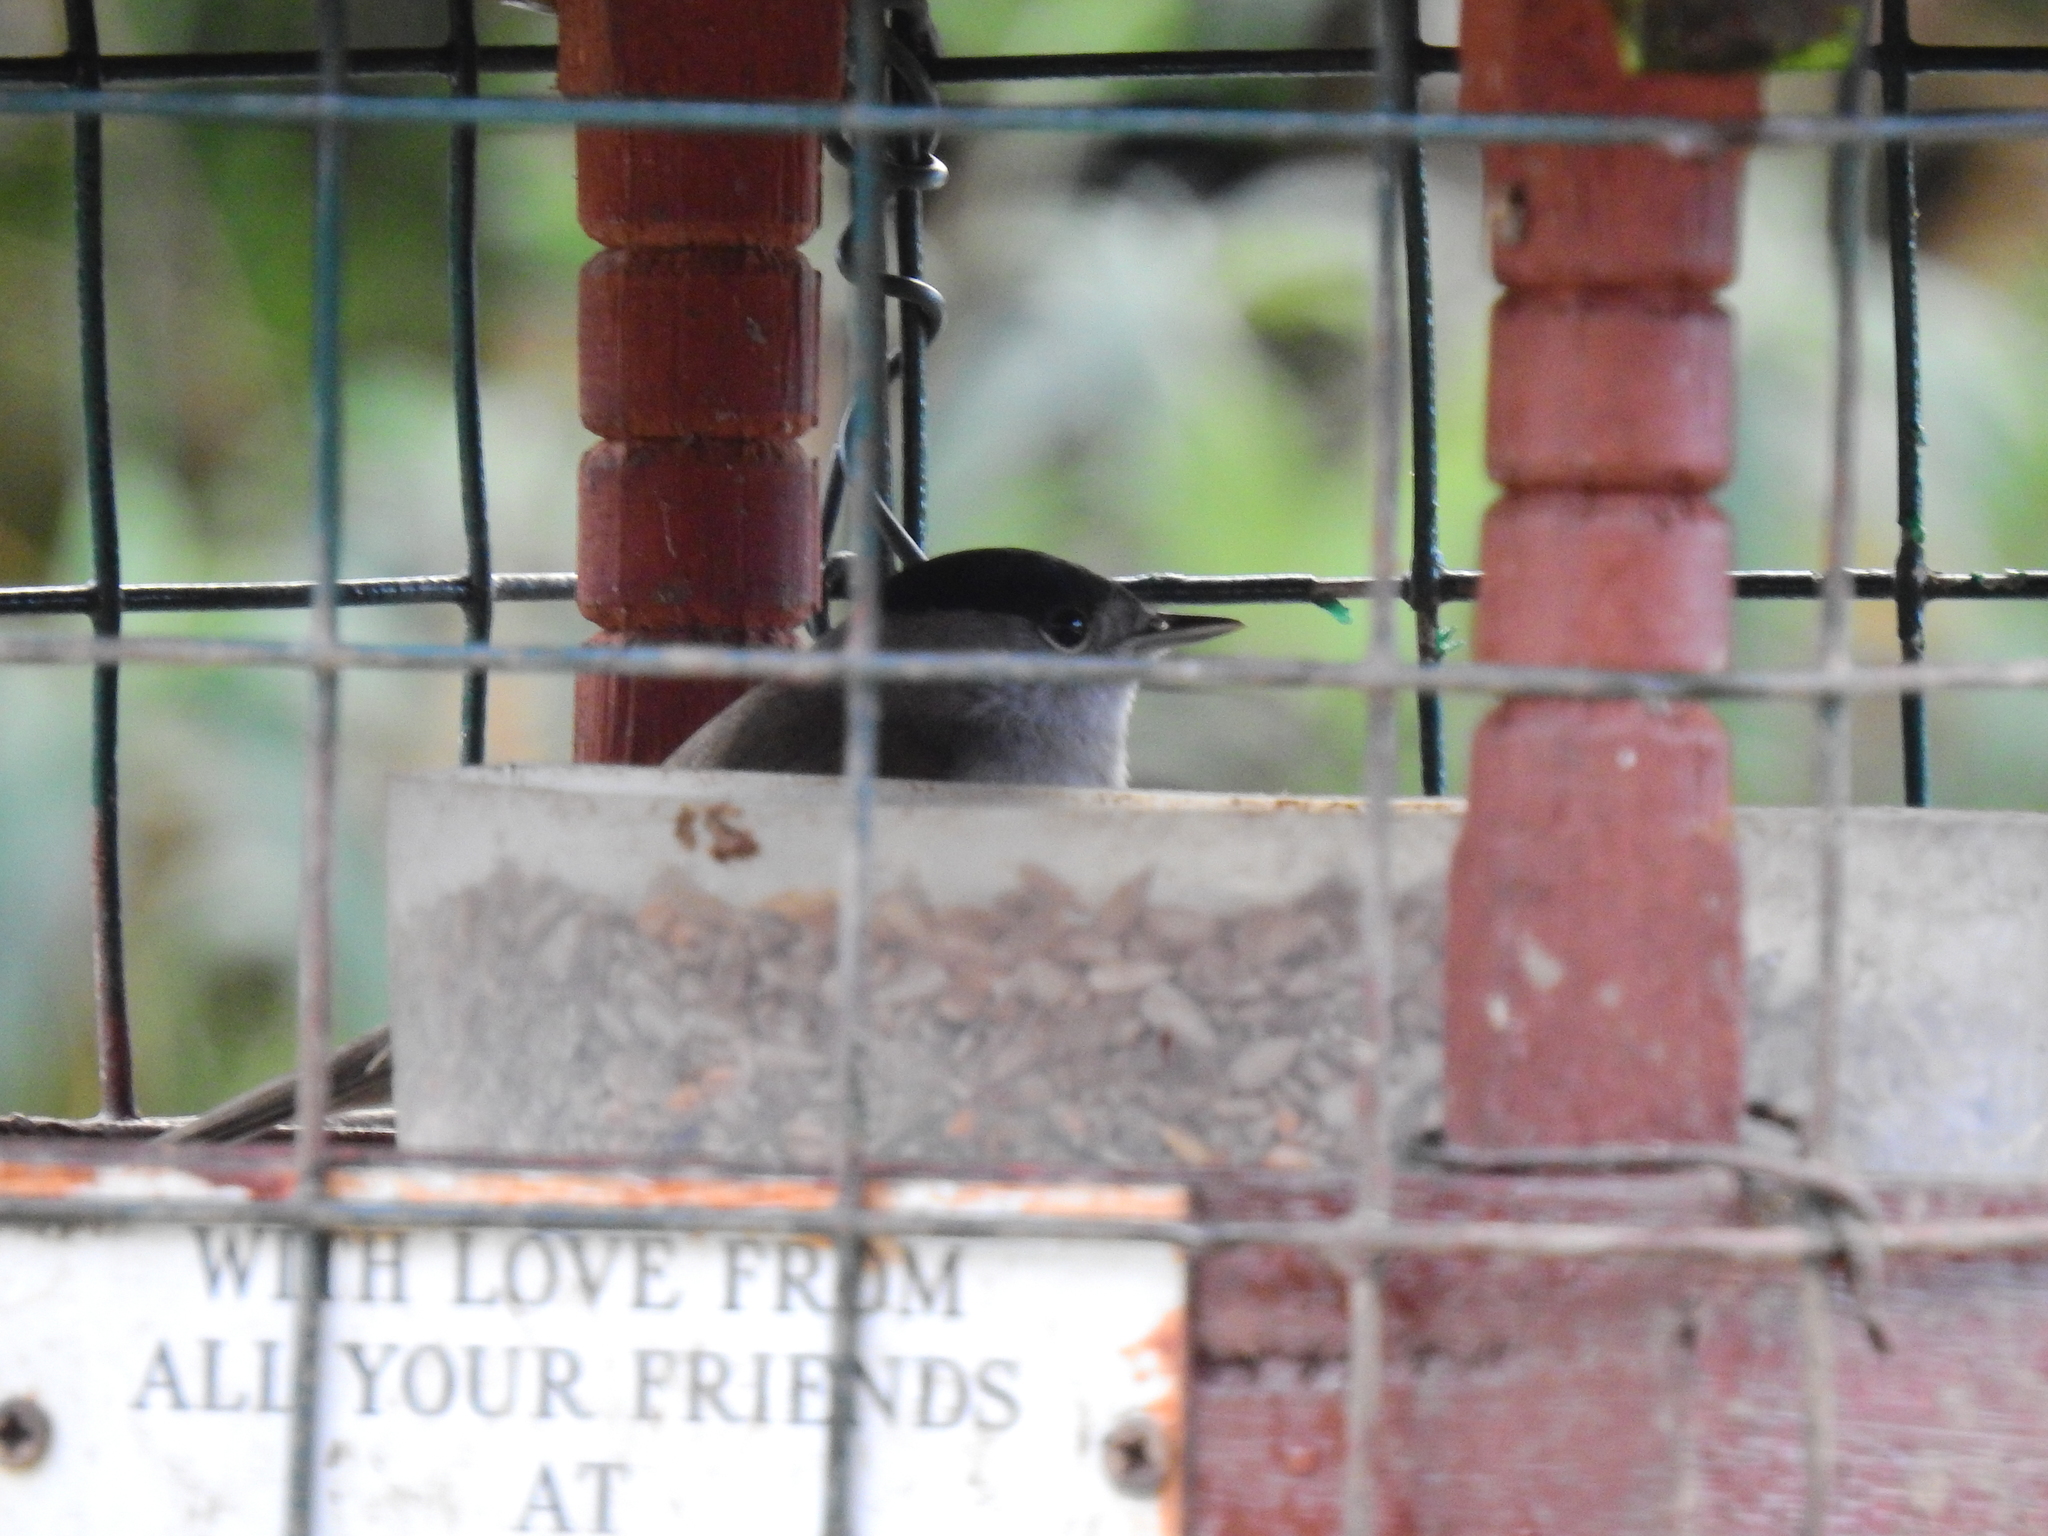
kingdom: Animalia
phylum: Chordata
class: Aves
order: Passeriformes
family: Sylviidae
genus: Sylvia
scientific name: Sylvia atricapilla
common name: Eurasian blackcap
